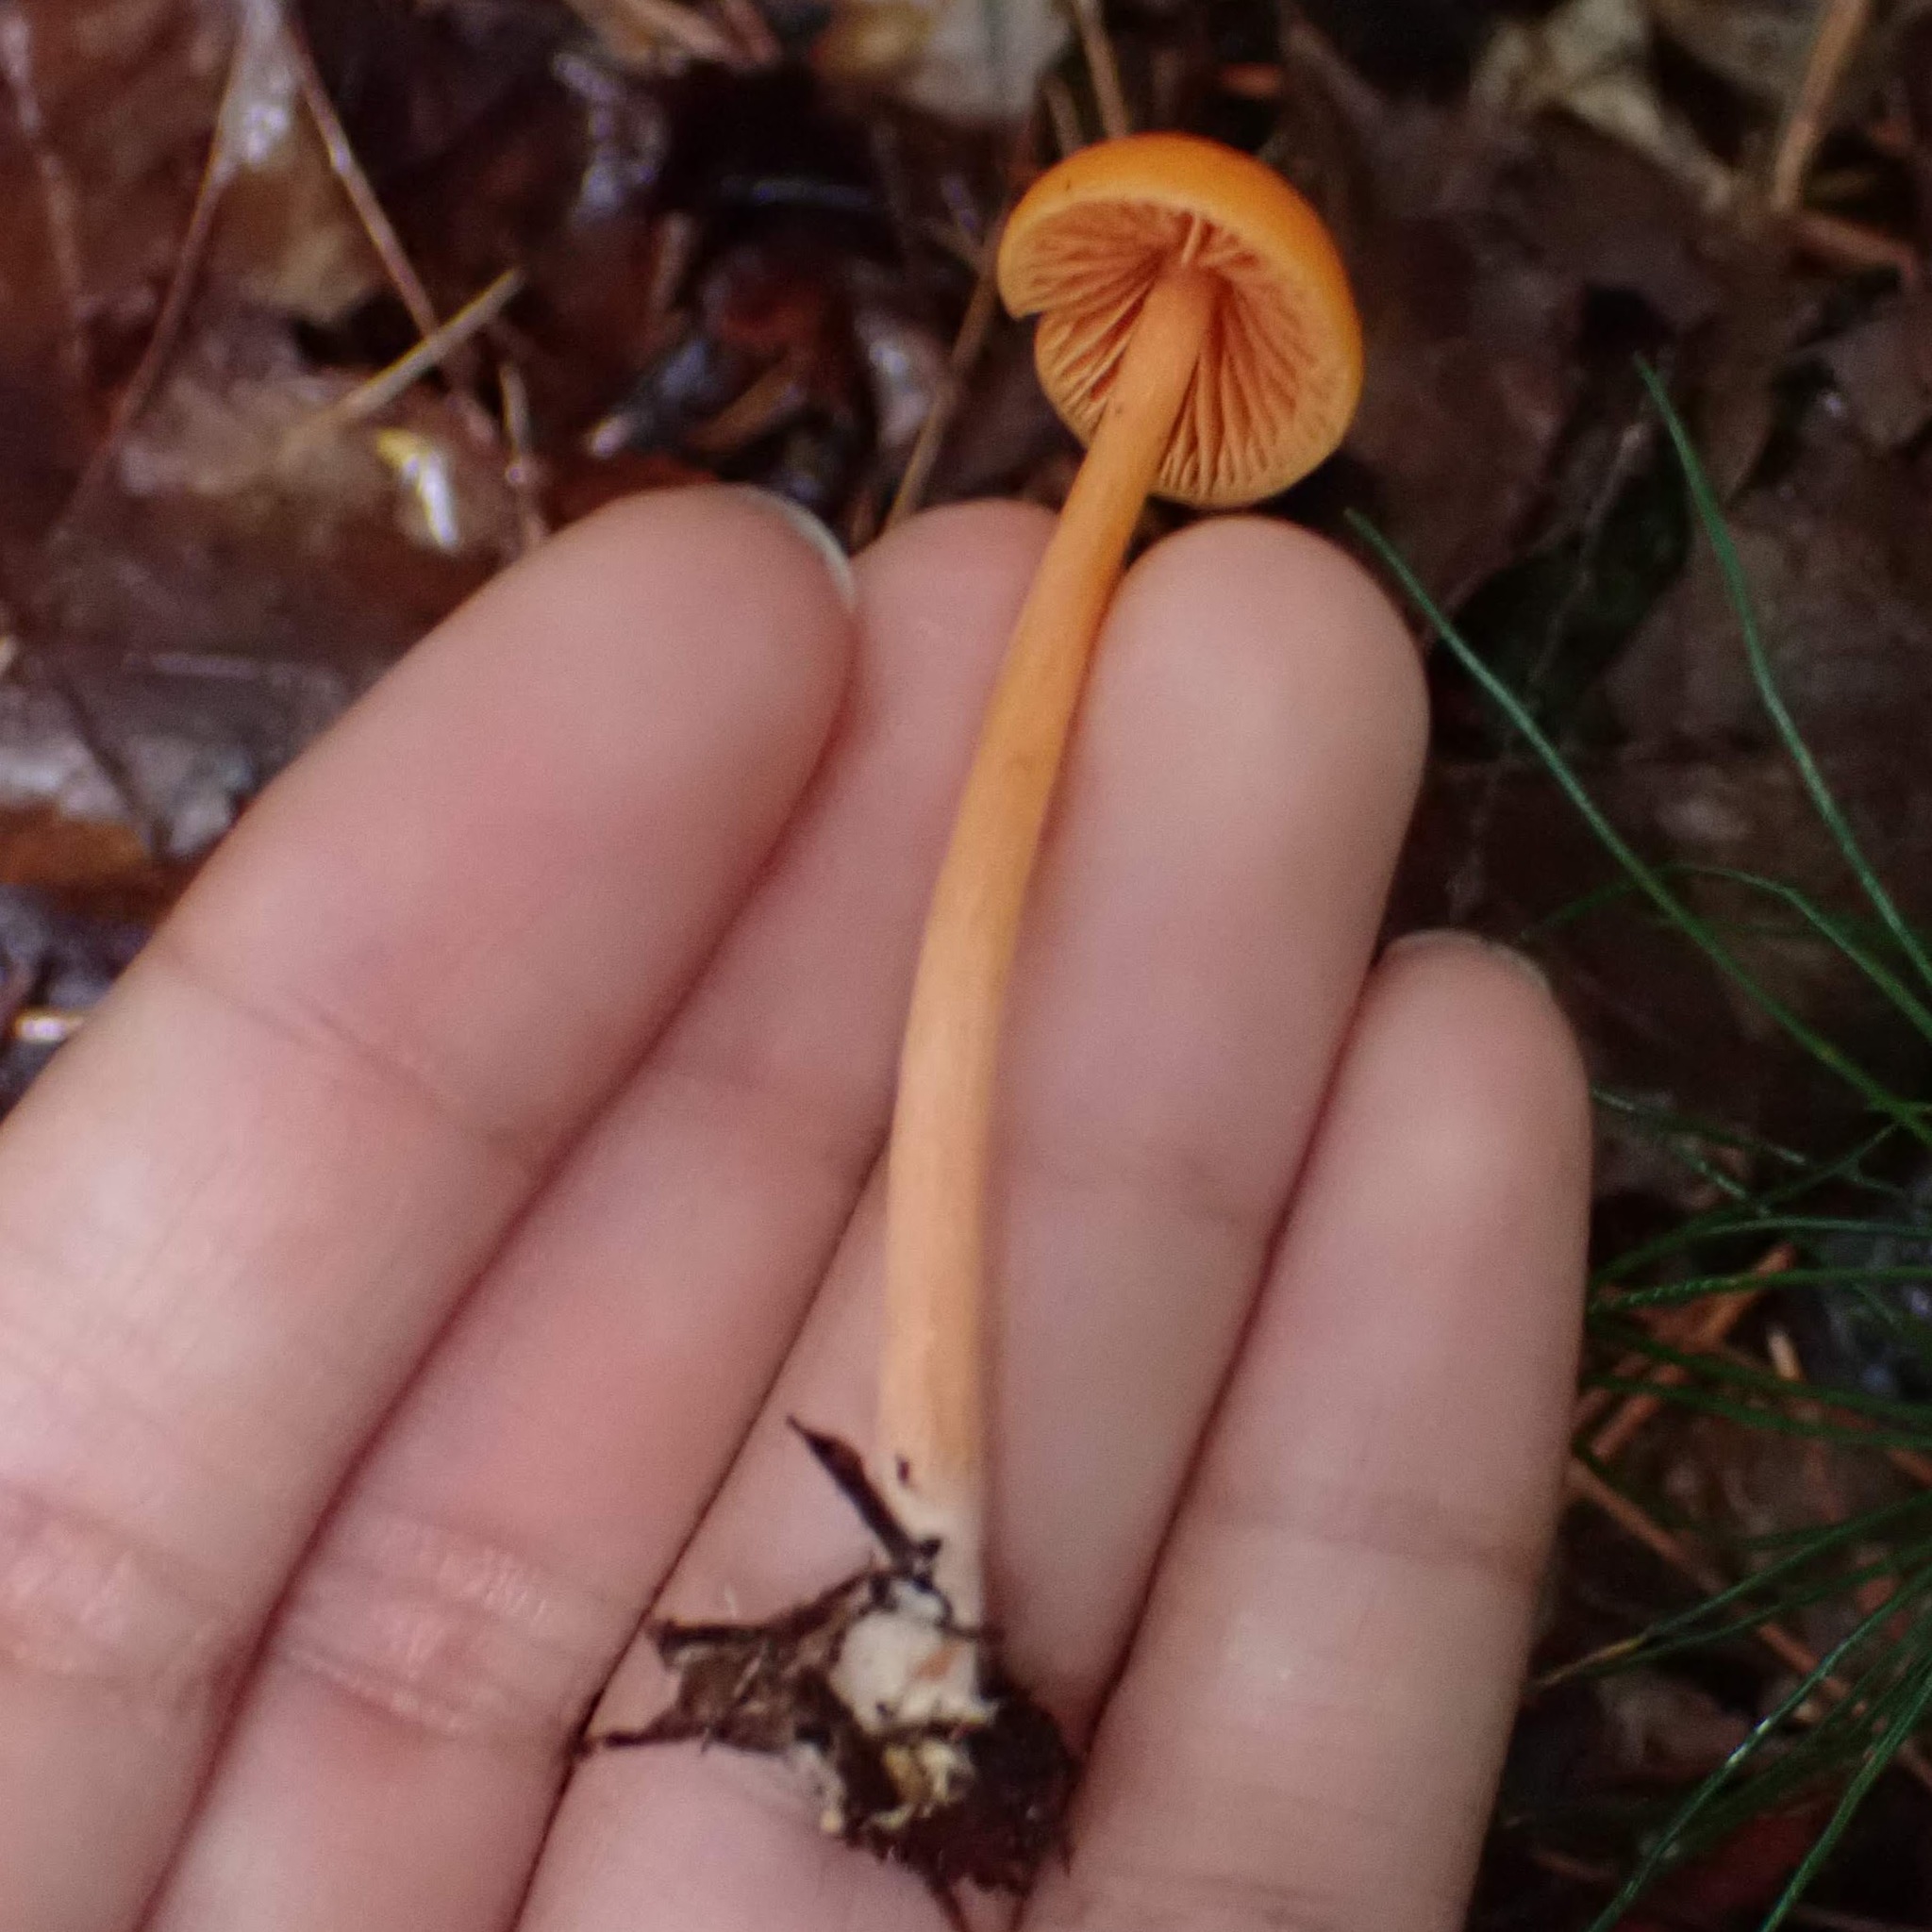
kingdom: Fungi
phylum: Basidiomycota
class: Agaricomycetes
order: Agaricales
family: Entolomataceae
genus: Entoloma
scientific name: Entoloma quadratum
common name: Salmon pinkgill
